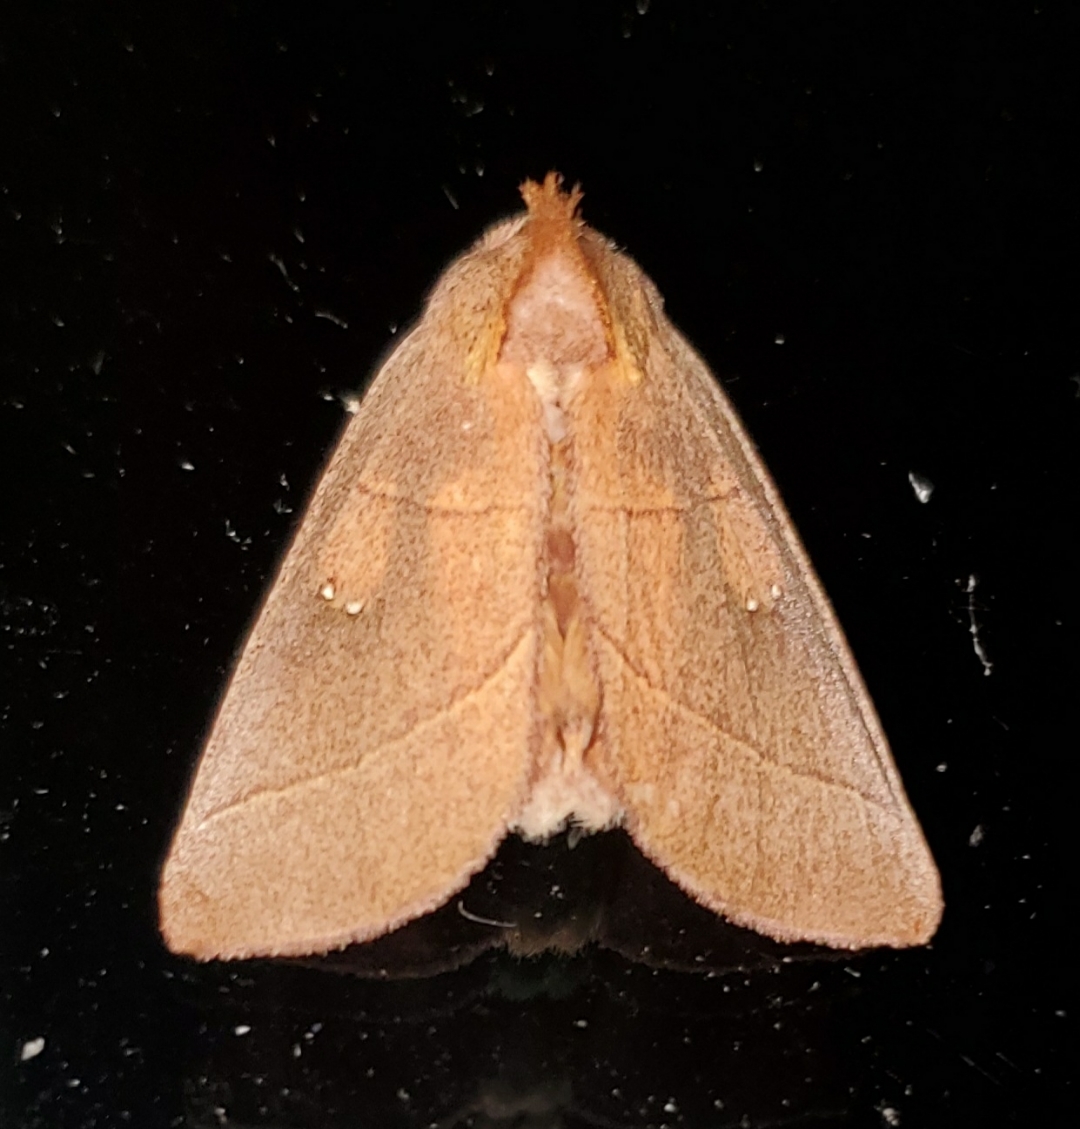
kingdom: Animalia
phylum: Arthropoda
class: Insecta
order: Lepidoptera
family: Notodontidae
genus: Nadata
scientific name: Nadata gibbosa
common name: White-dotted prominent
